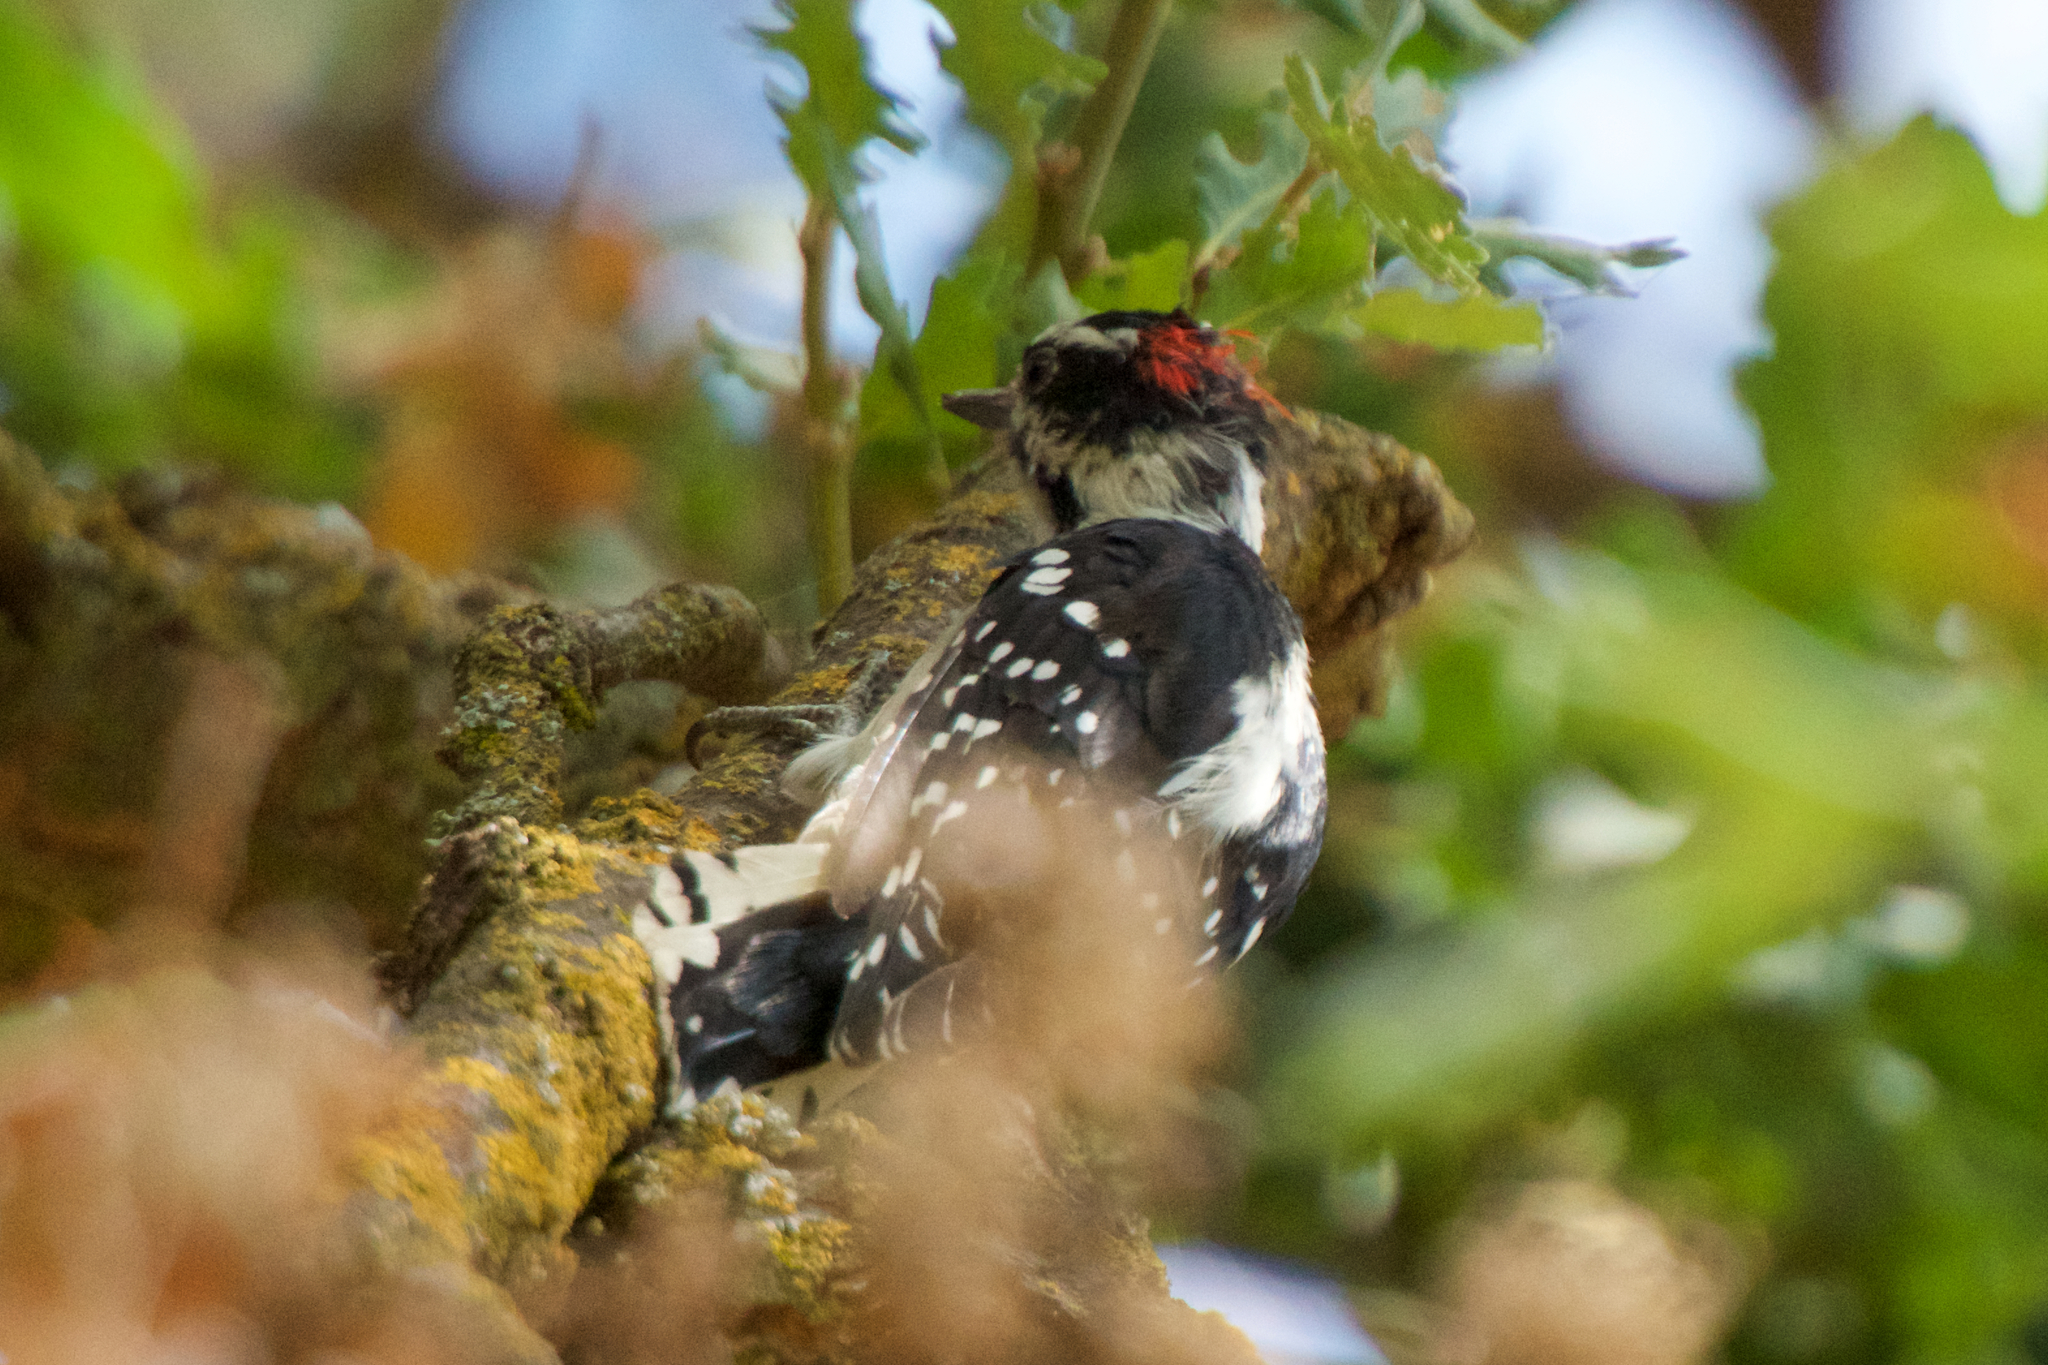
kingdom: Animalia
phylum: Chordata
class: Aves
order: Piciformes
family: Picidae
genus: Dryobates
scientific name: Dryobates pubescens
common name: Downy woodpecker
